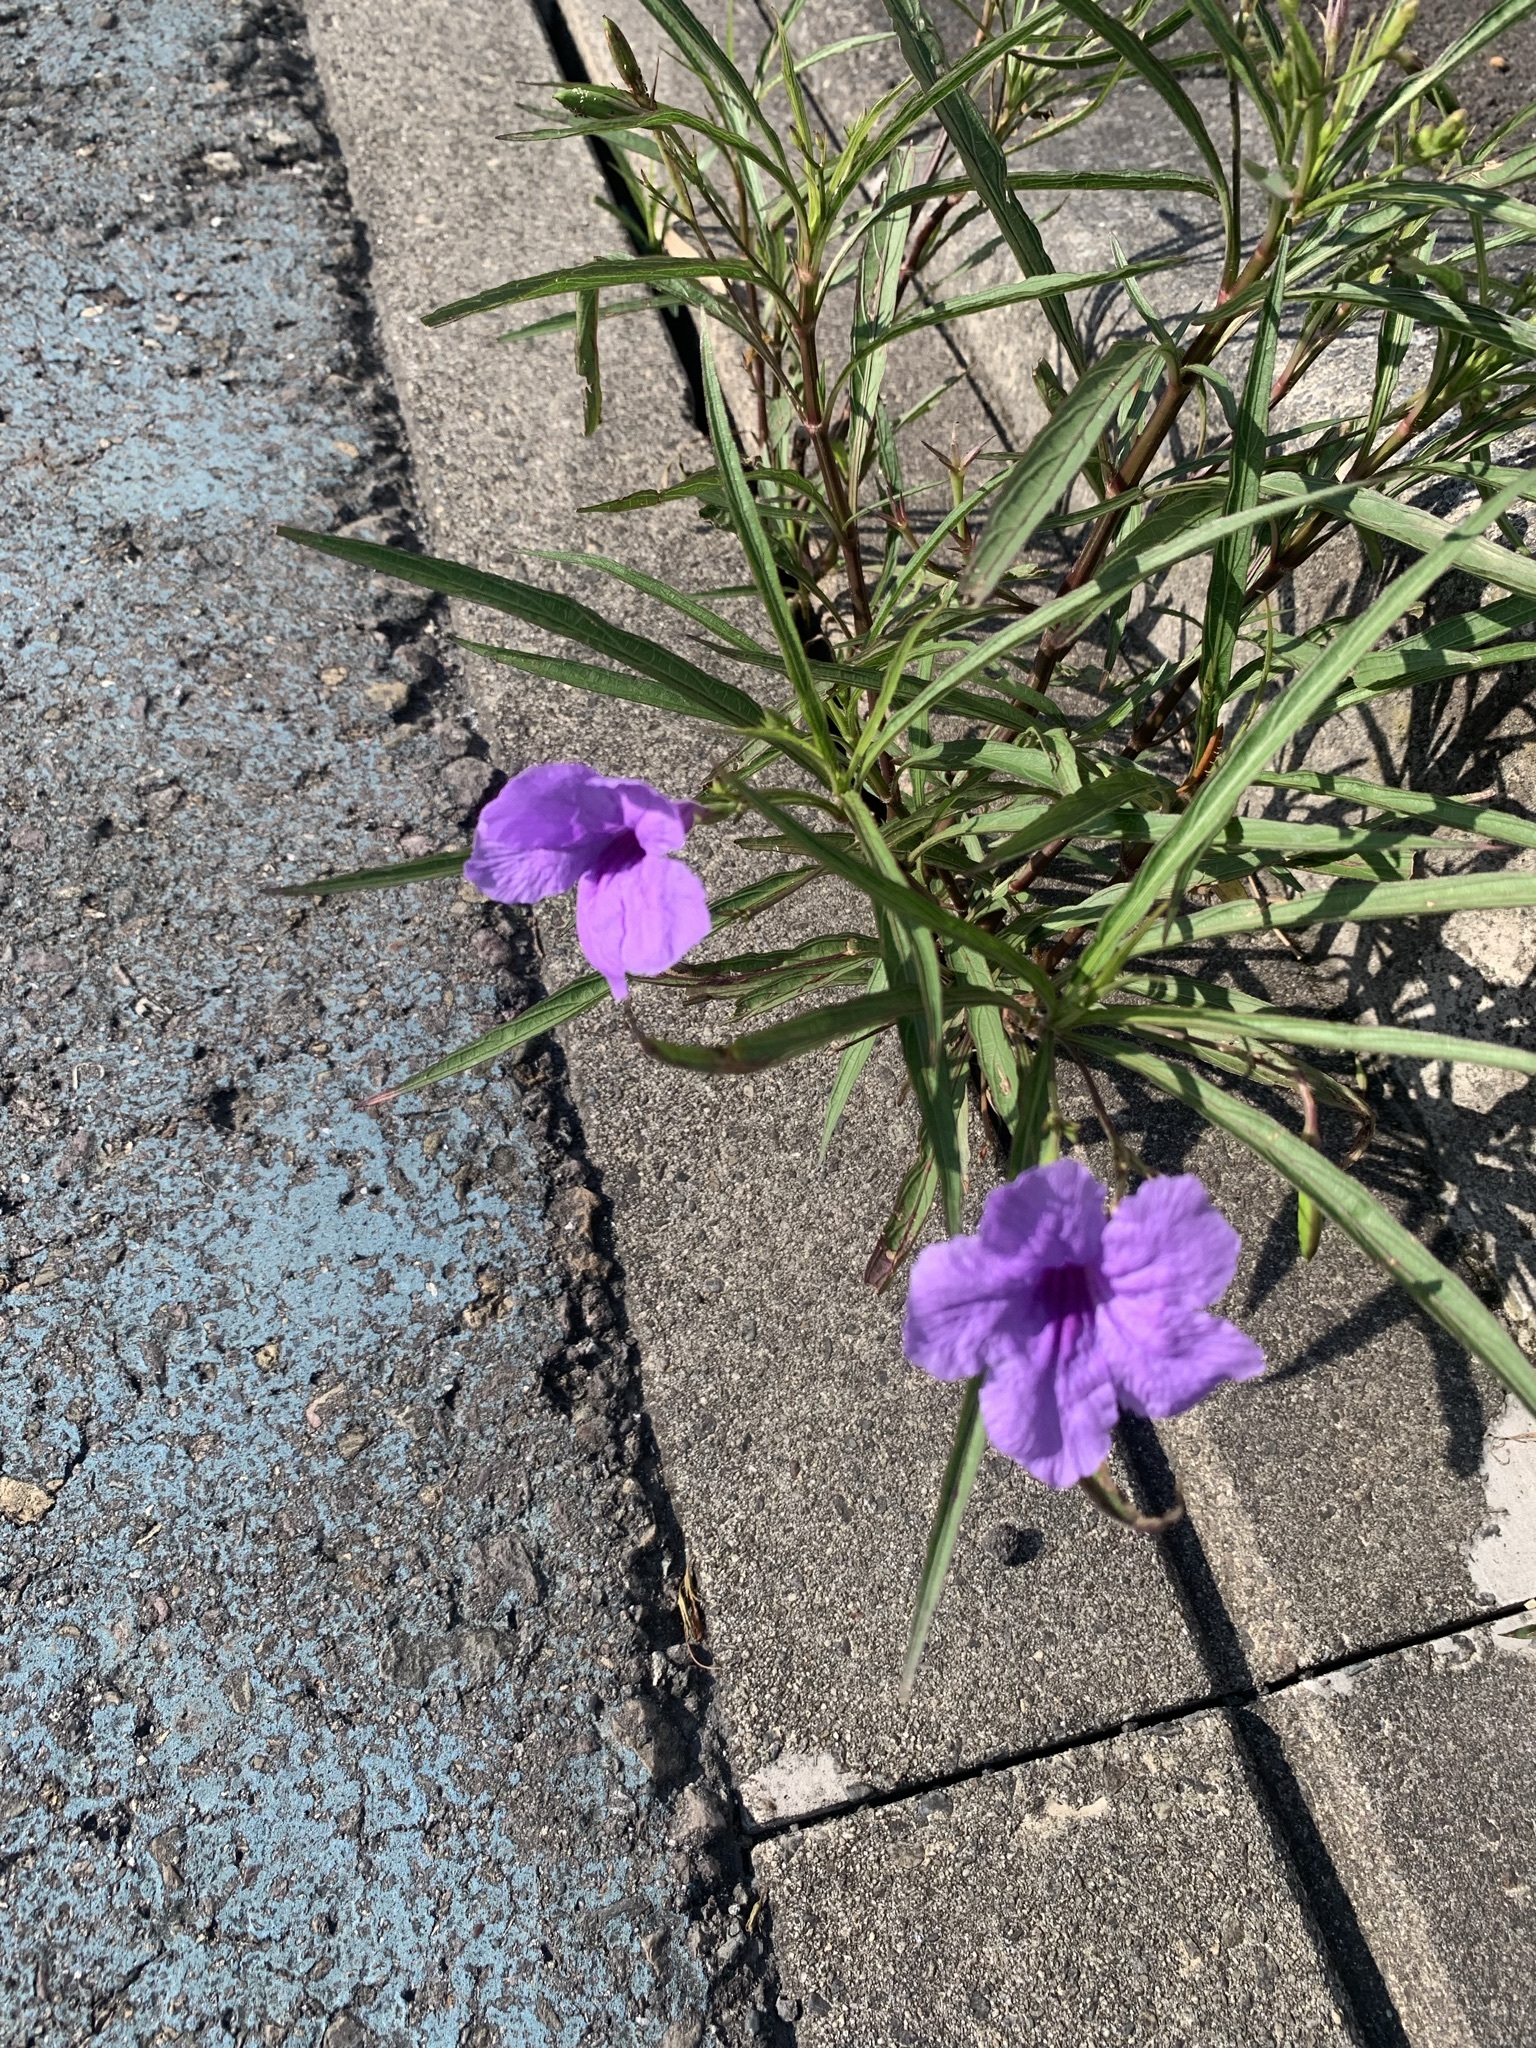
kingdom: Plantae
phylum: Tracheophyta
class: Magnoliopsida
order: Lamiales
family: Acanthaceae
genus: Ruellia
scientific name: Ruellia simplex
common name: Softseed wild petunia
